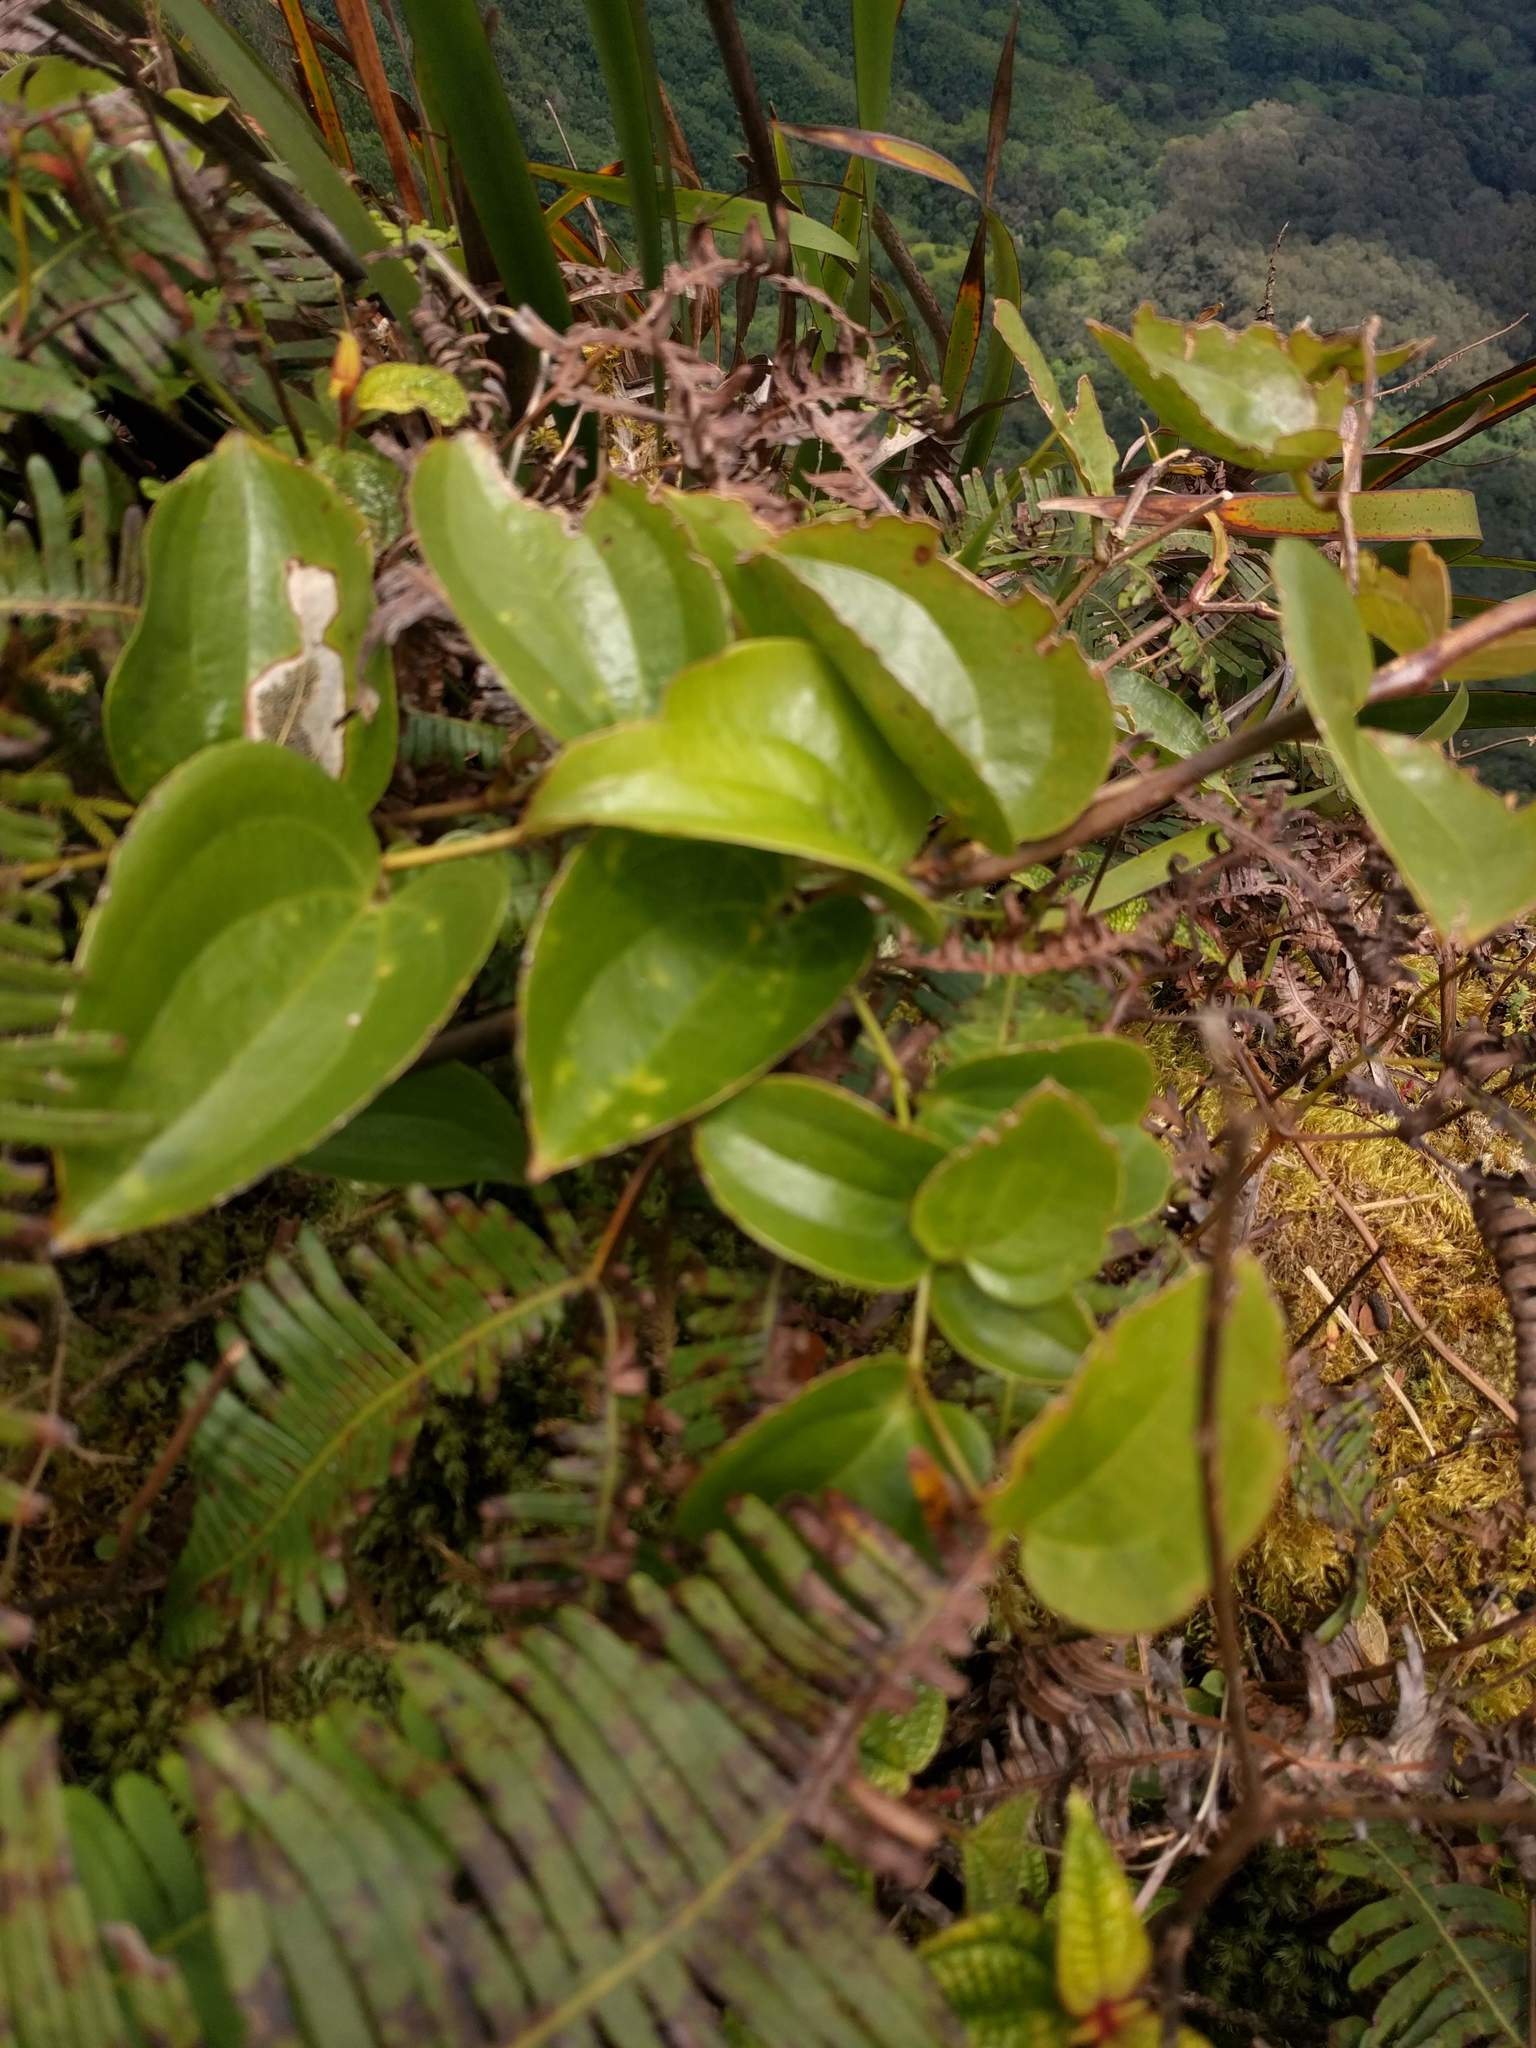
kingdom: Plantae
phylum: Tracheophyta
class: Liliopsida
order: Liliales
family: Smilacaceae
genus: Smilax
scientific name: Smilax melastomifolia
